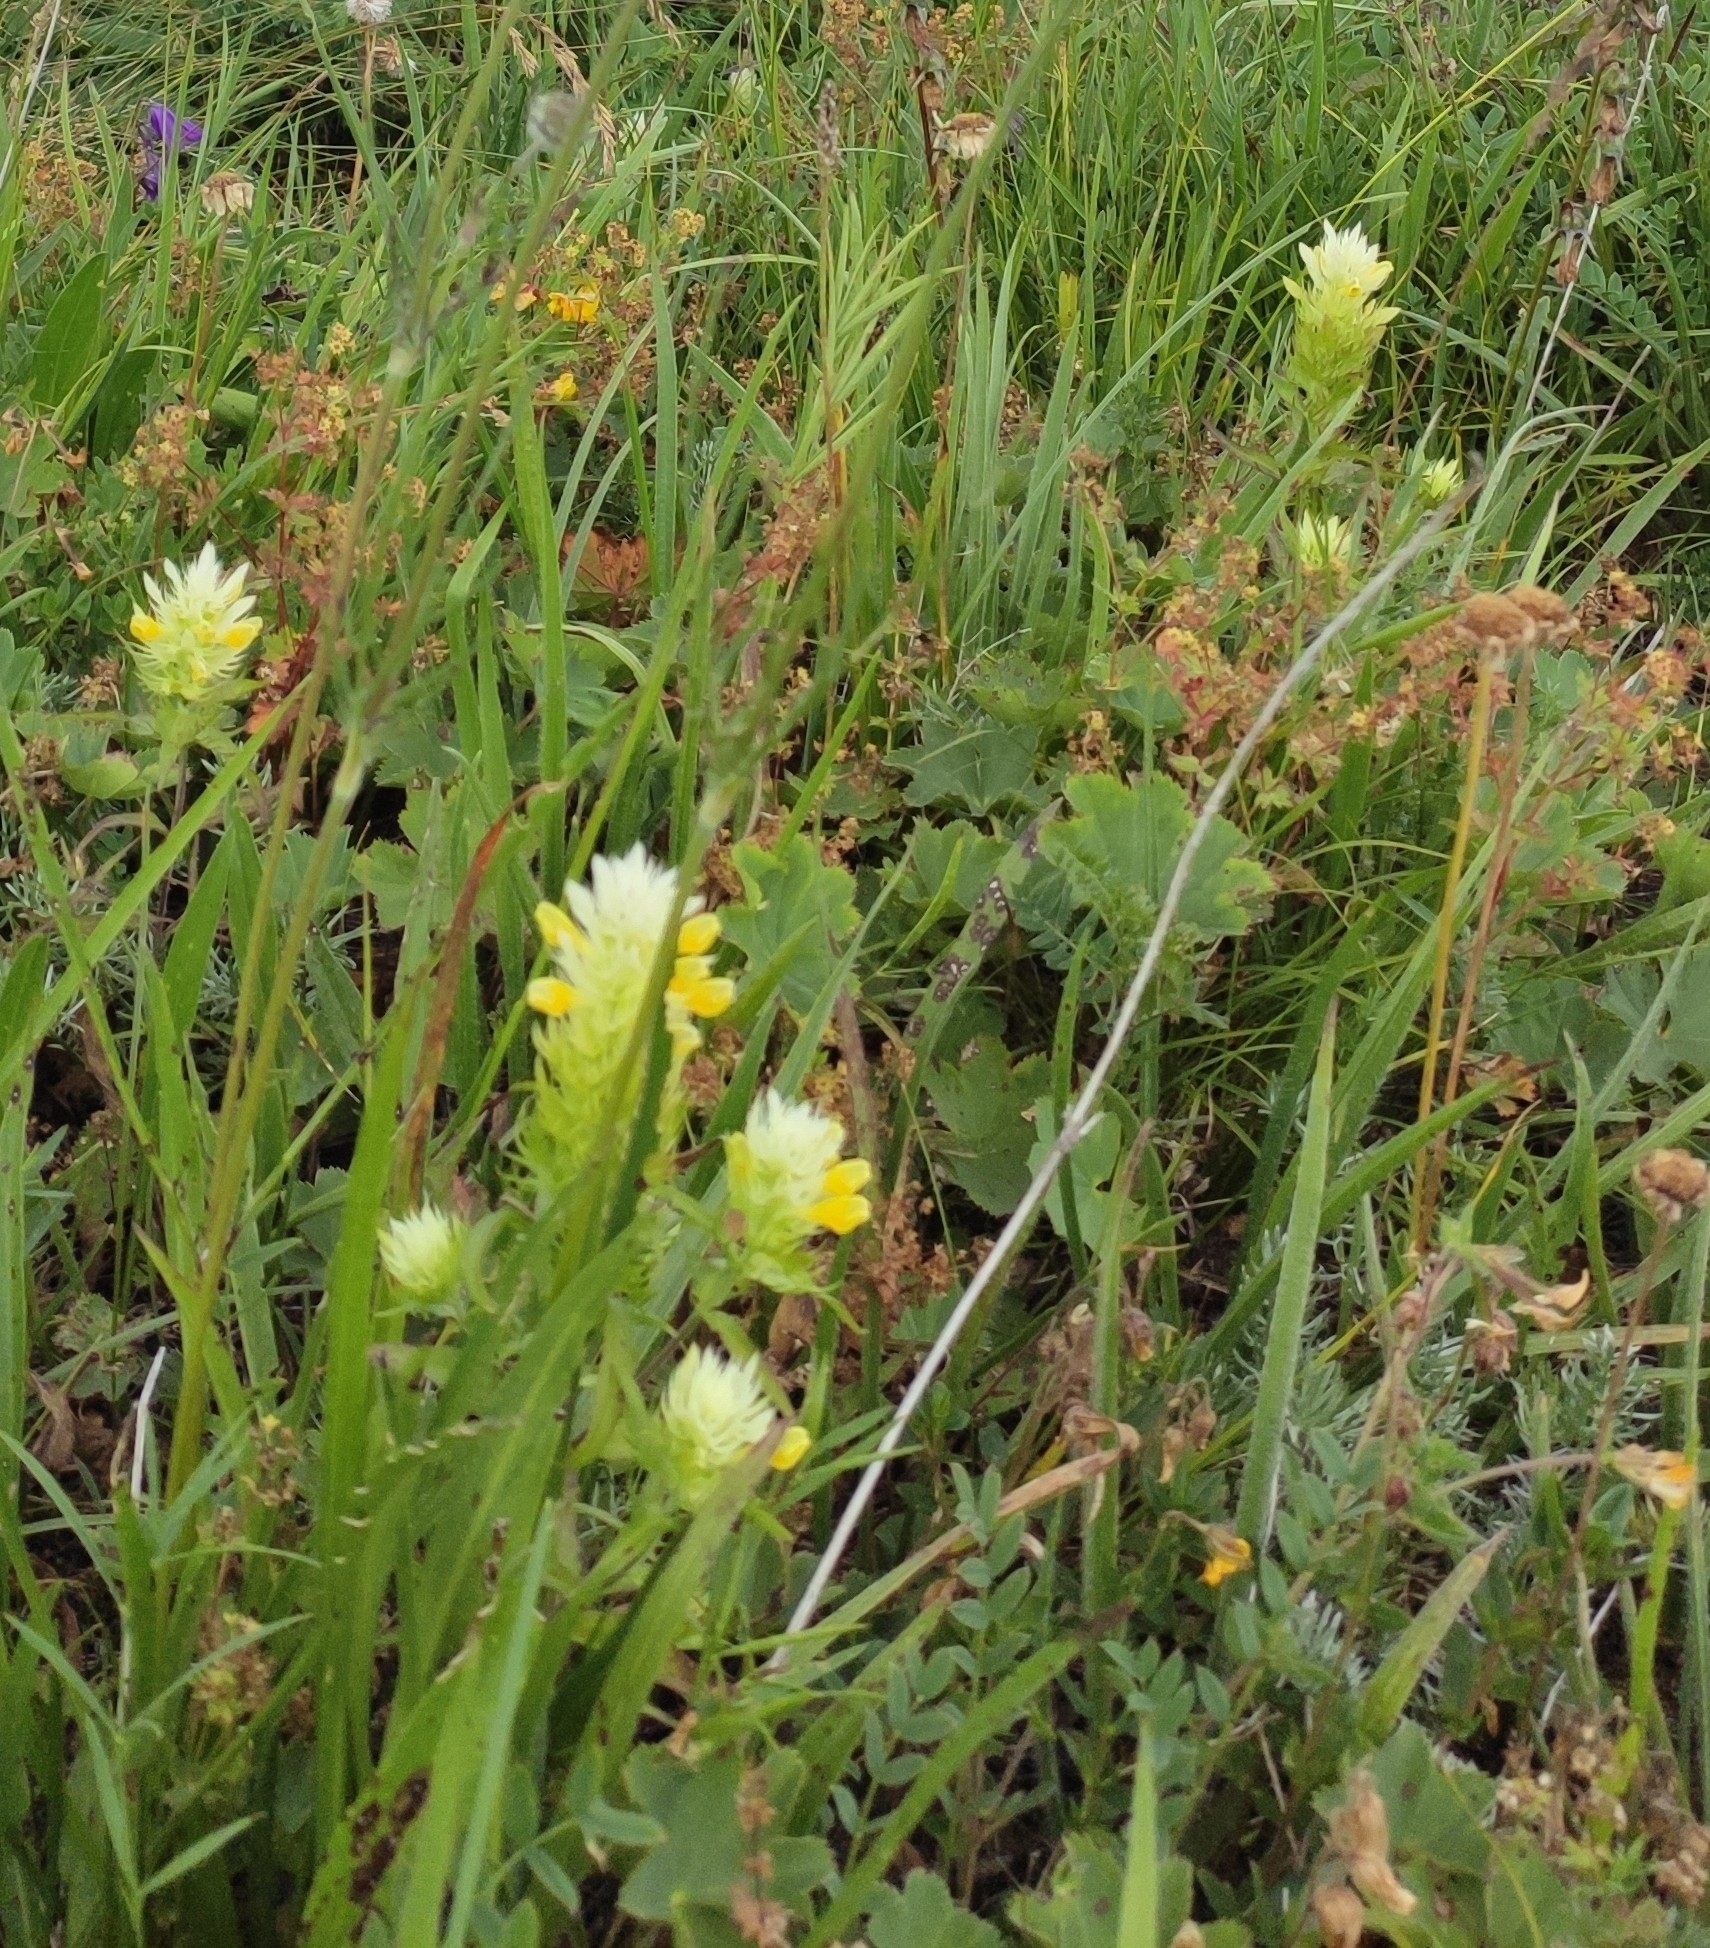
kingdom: Plantae
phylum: Tracheophyta
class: Magnoliopsida
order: Lamiales
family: Orobanchaceae
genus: Melampyrum
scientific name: Melampyrum arvense
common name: Field cow-wheat
